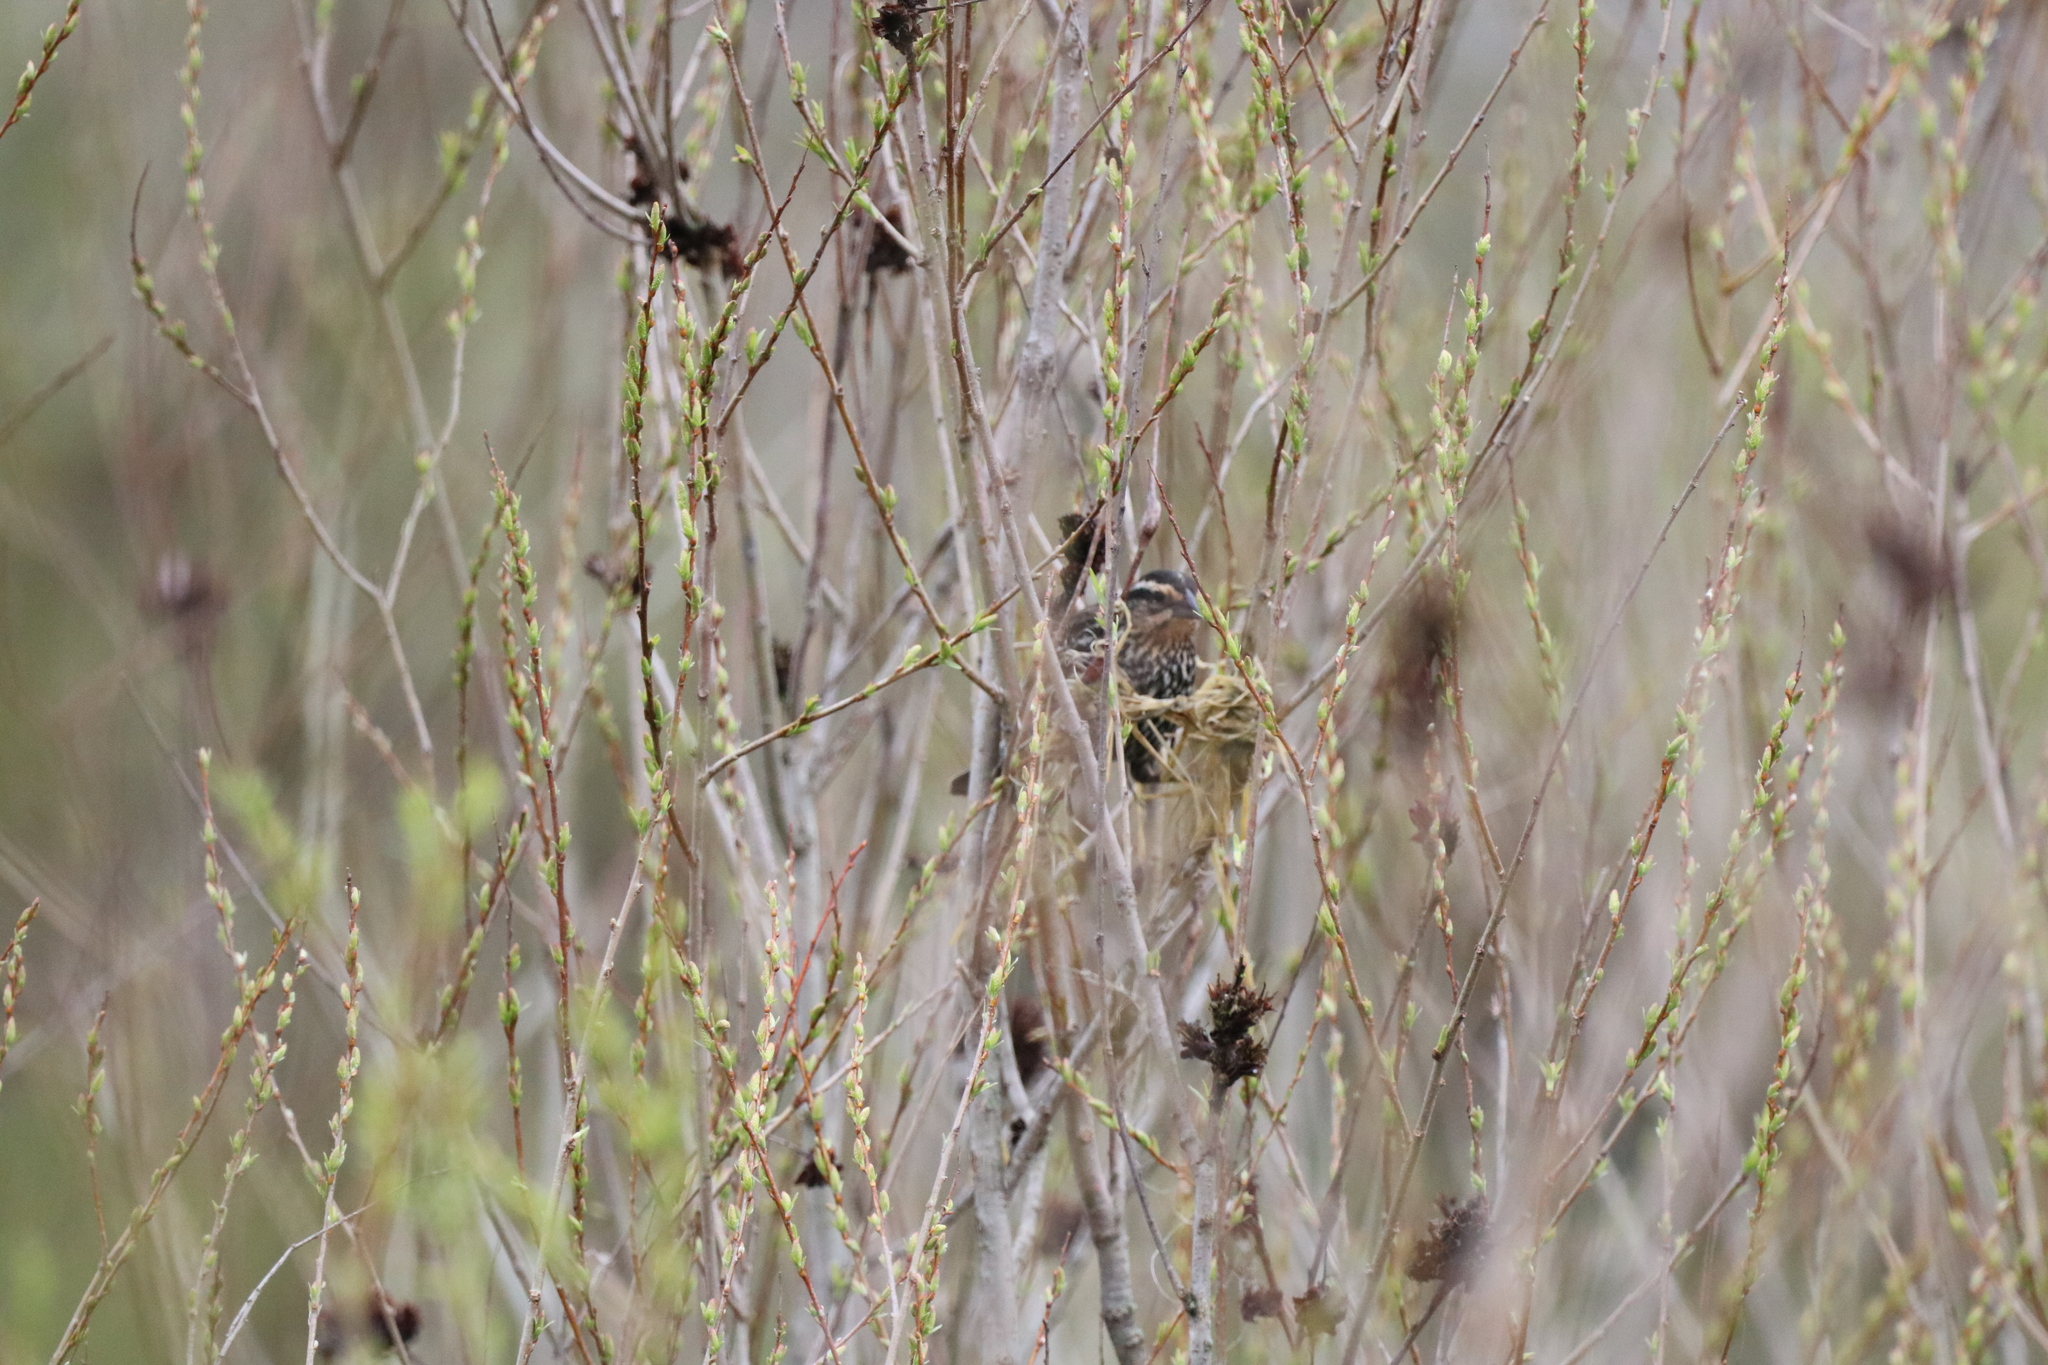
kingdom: Animalia
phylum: Chordata
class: Aves
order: Passeriformes
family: Icteridae
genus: Agelaius
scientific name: Agelaius phoeniceus
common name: Red-winged blackbird
